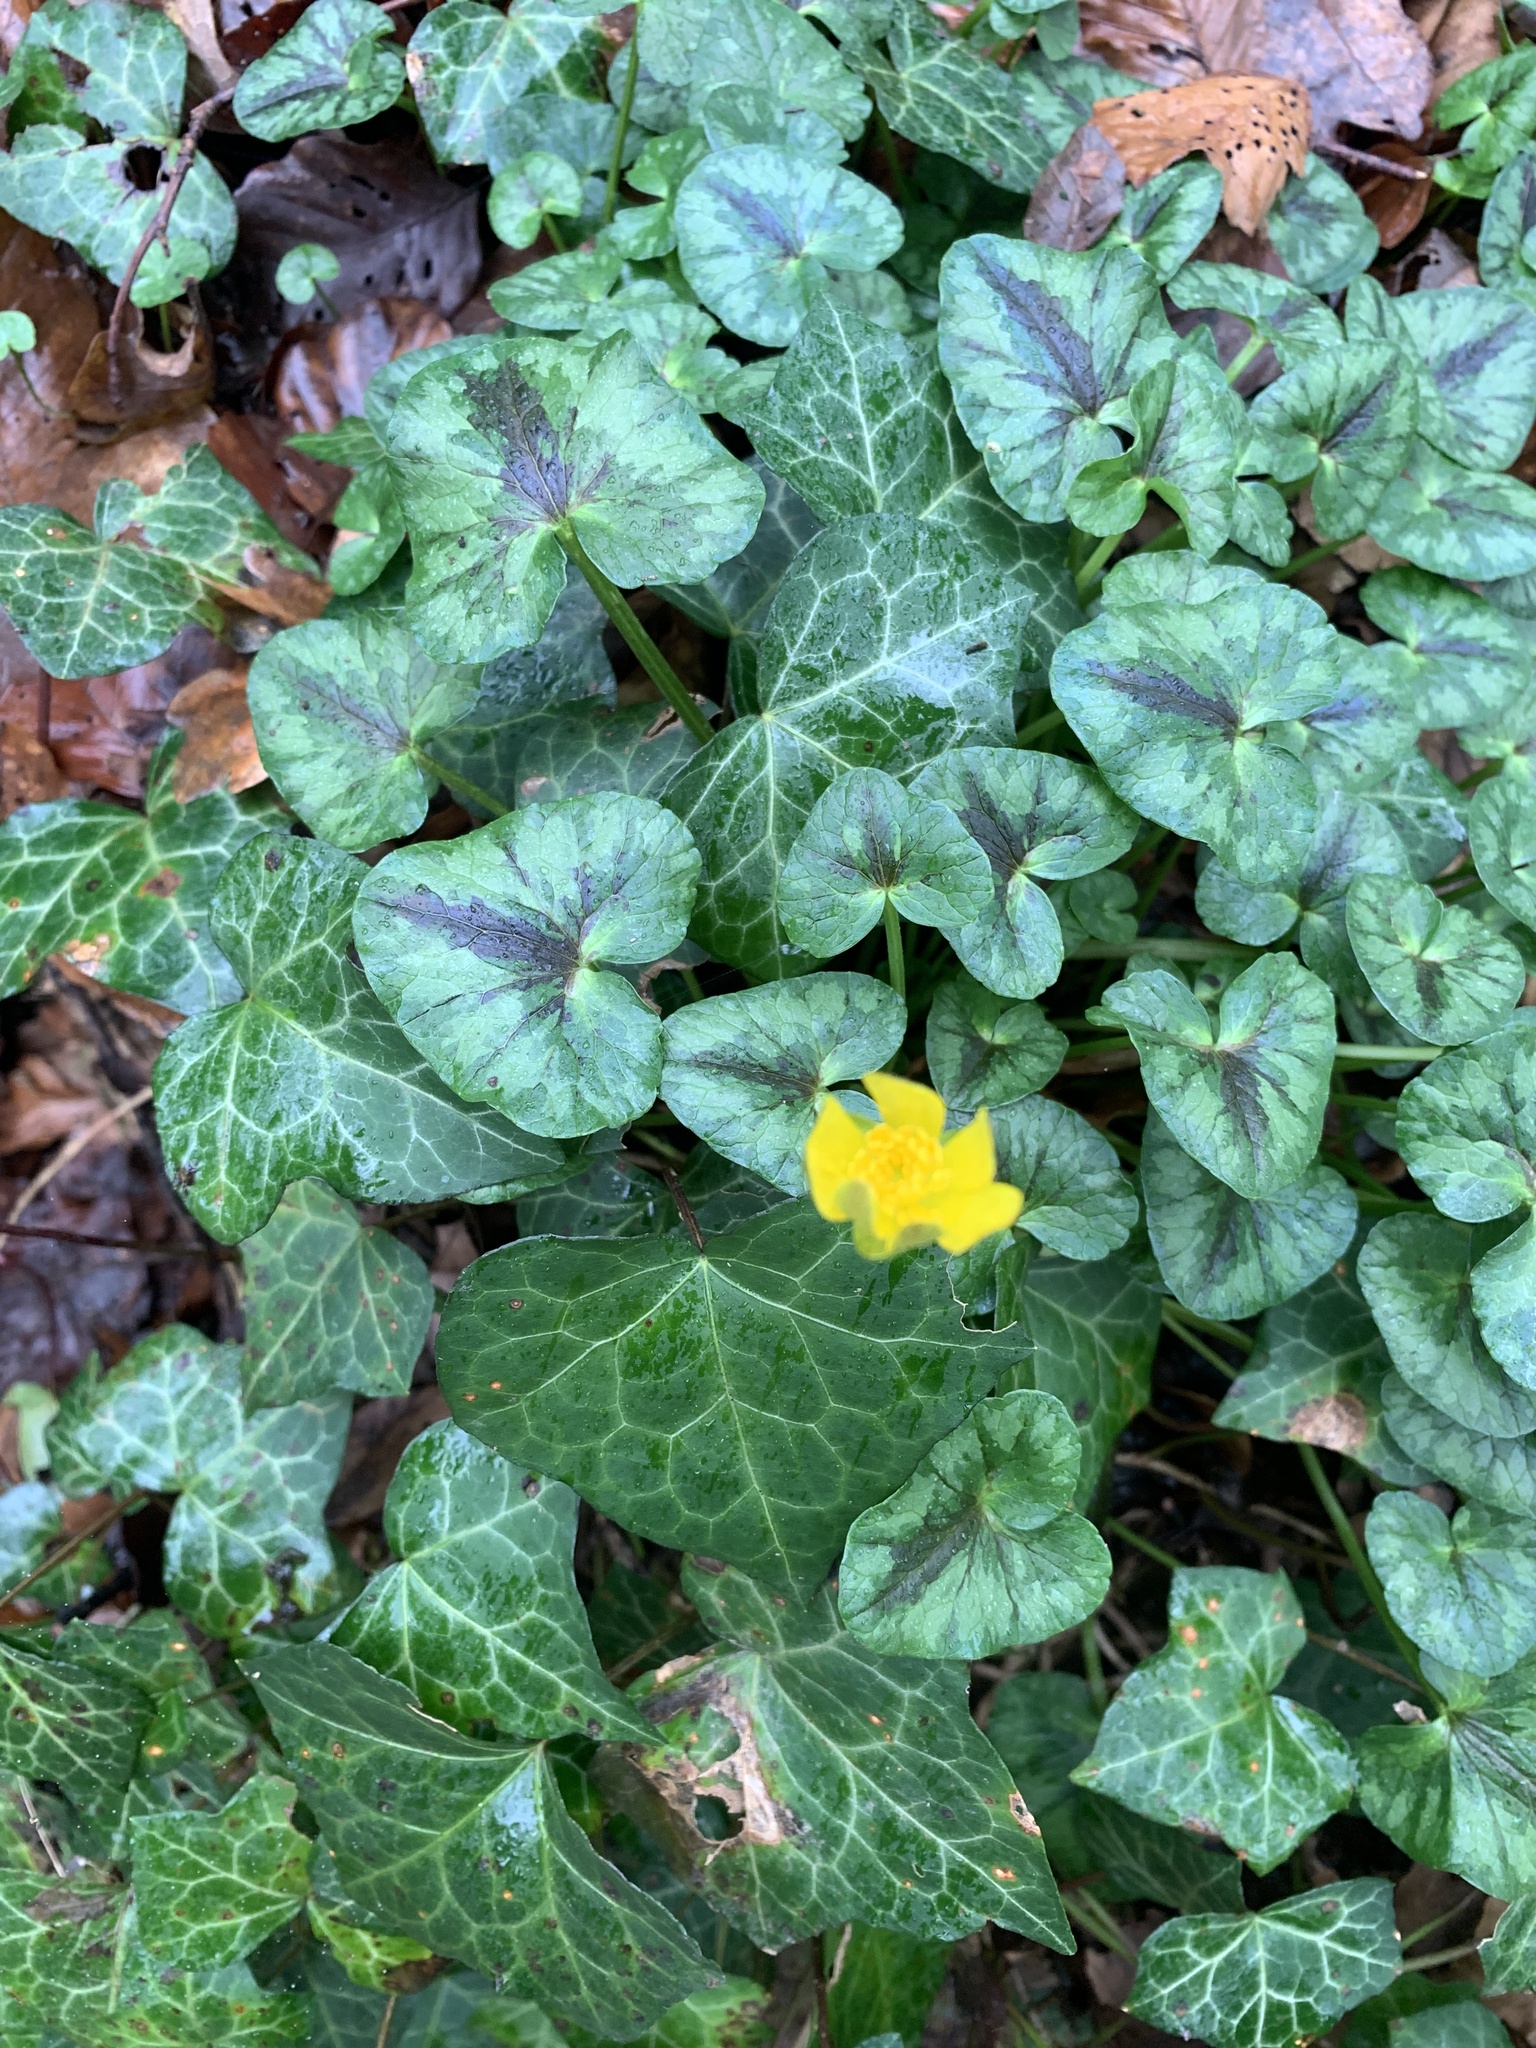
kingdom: Plantae
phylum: Tracheophyta
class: Magnoliopsida
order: Ranunculales
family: Ranunculaceae
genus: Ficaria
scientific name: Ficaria verna
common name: Lesser celandine
